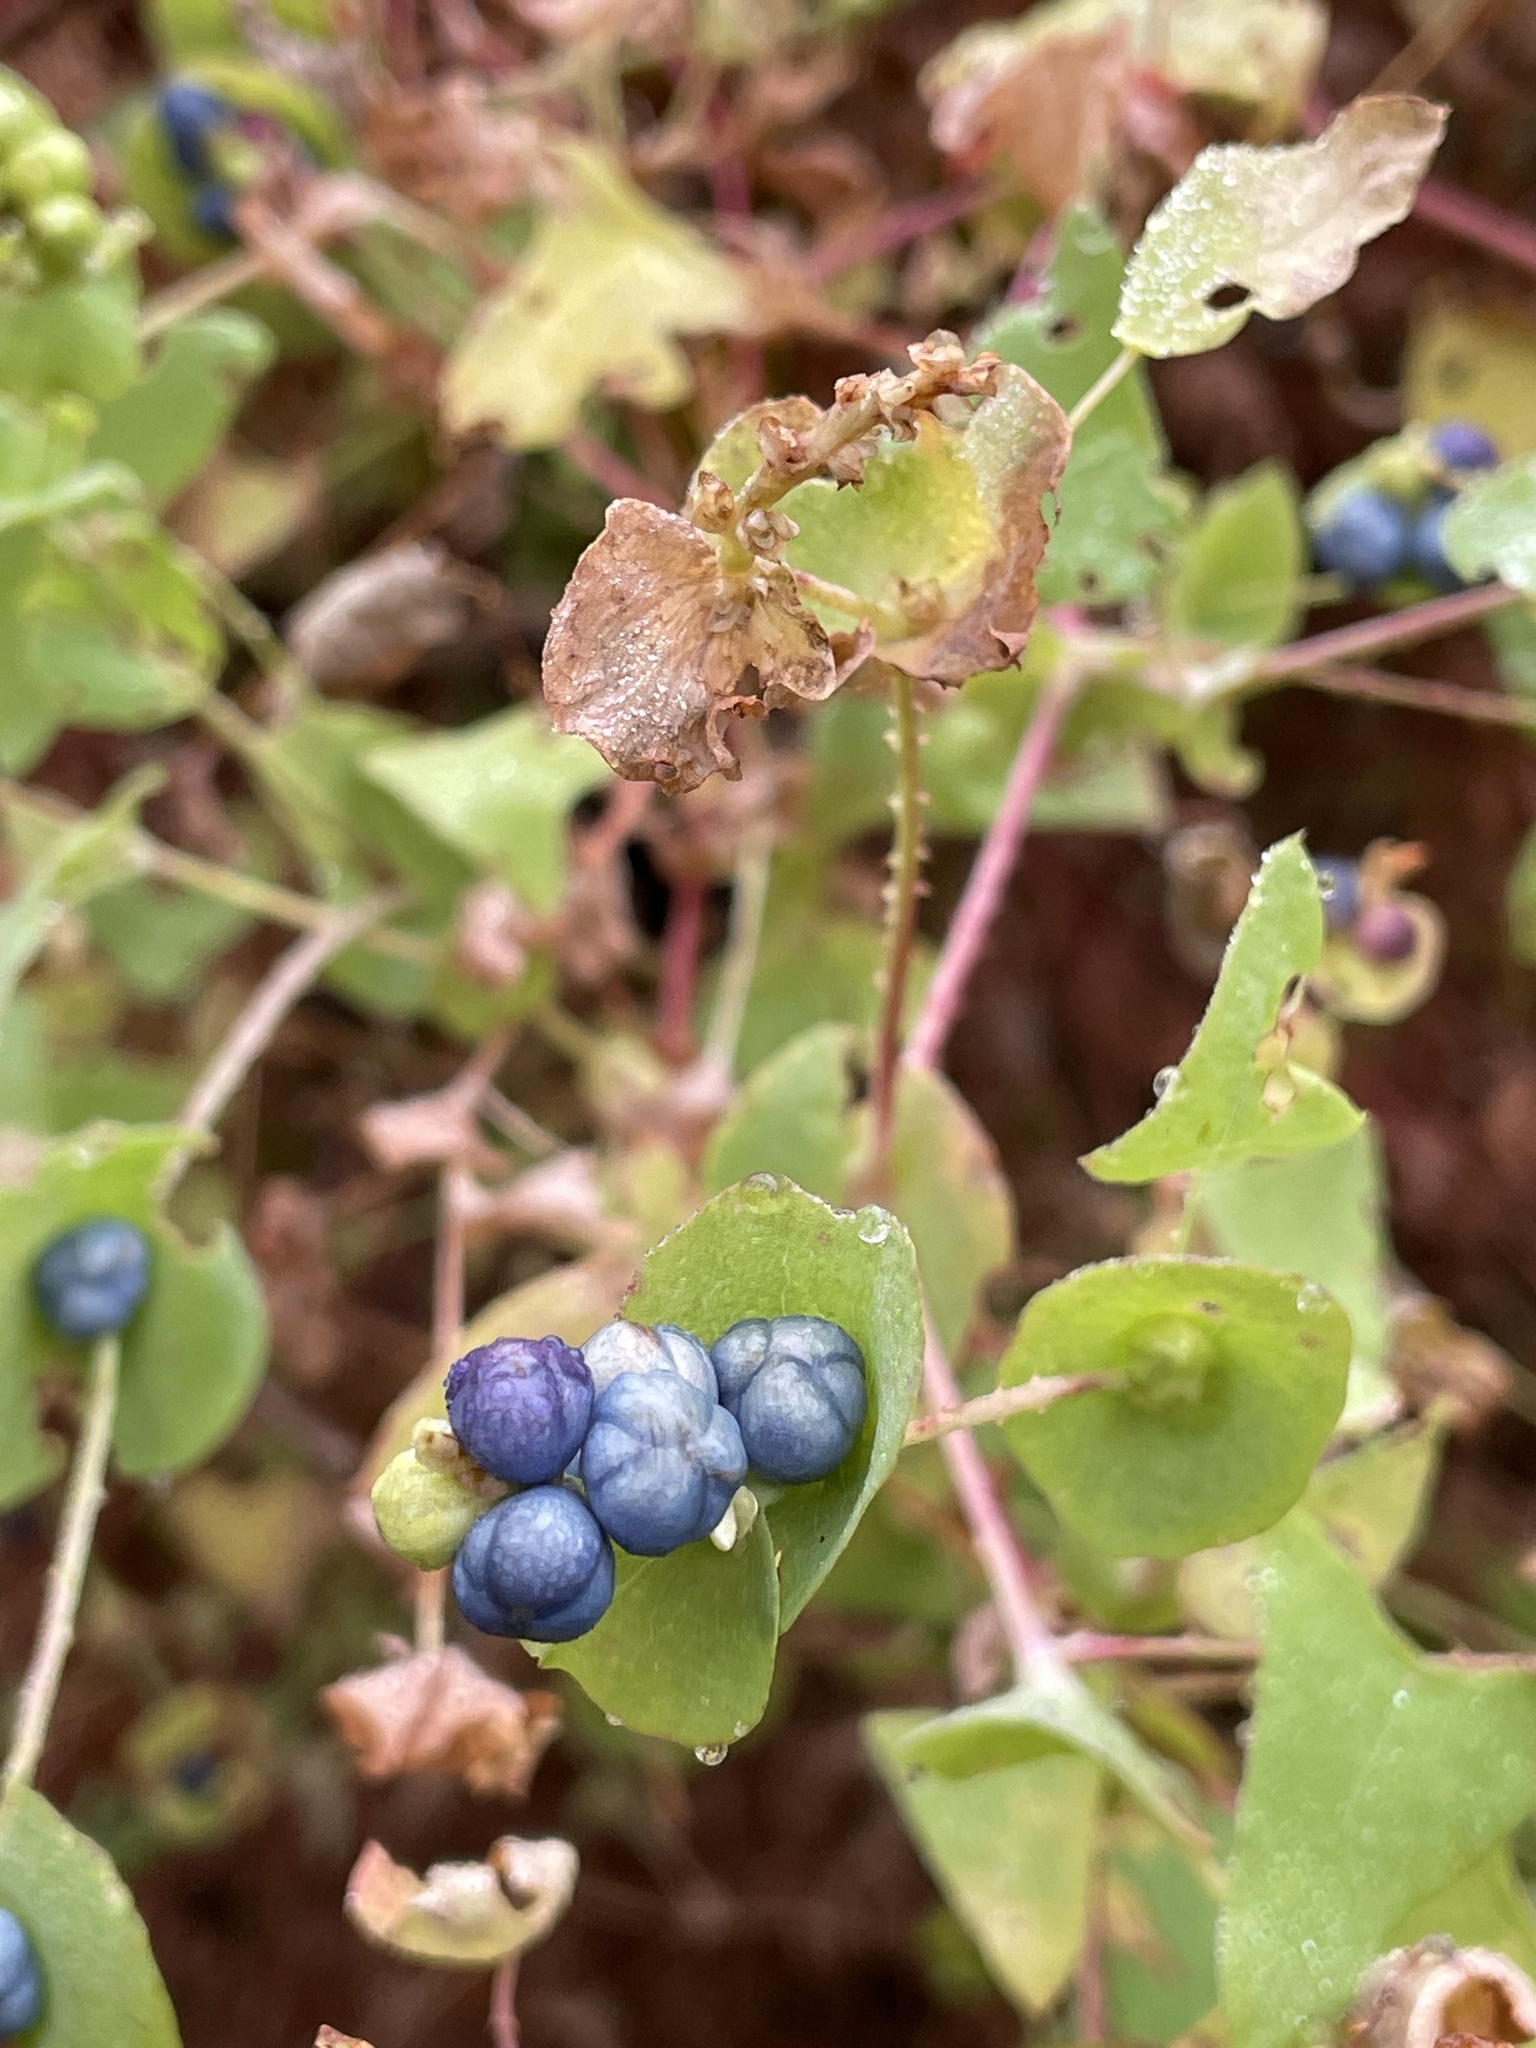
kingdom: Plantae
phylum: Tracheophyta
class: Magnoliopsida
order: Caryophyllales
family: Polygonaceae
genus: Persicaria
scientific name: Persicaria perfoliata
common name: Asiatic tearthumb
